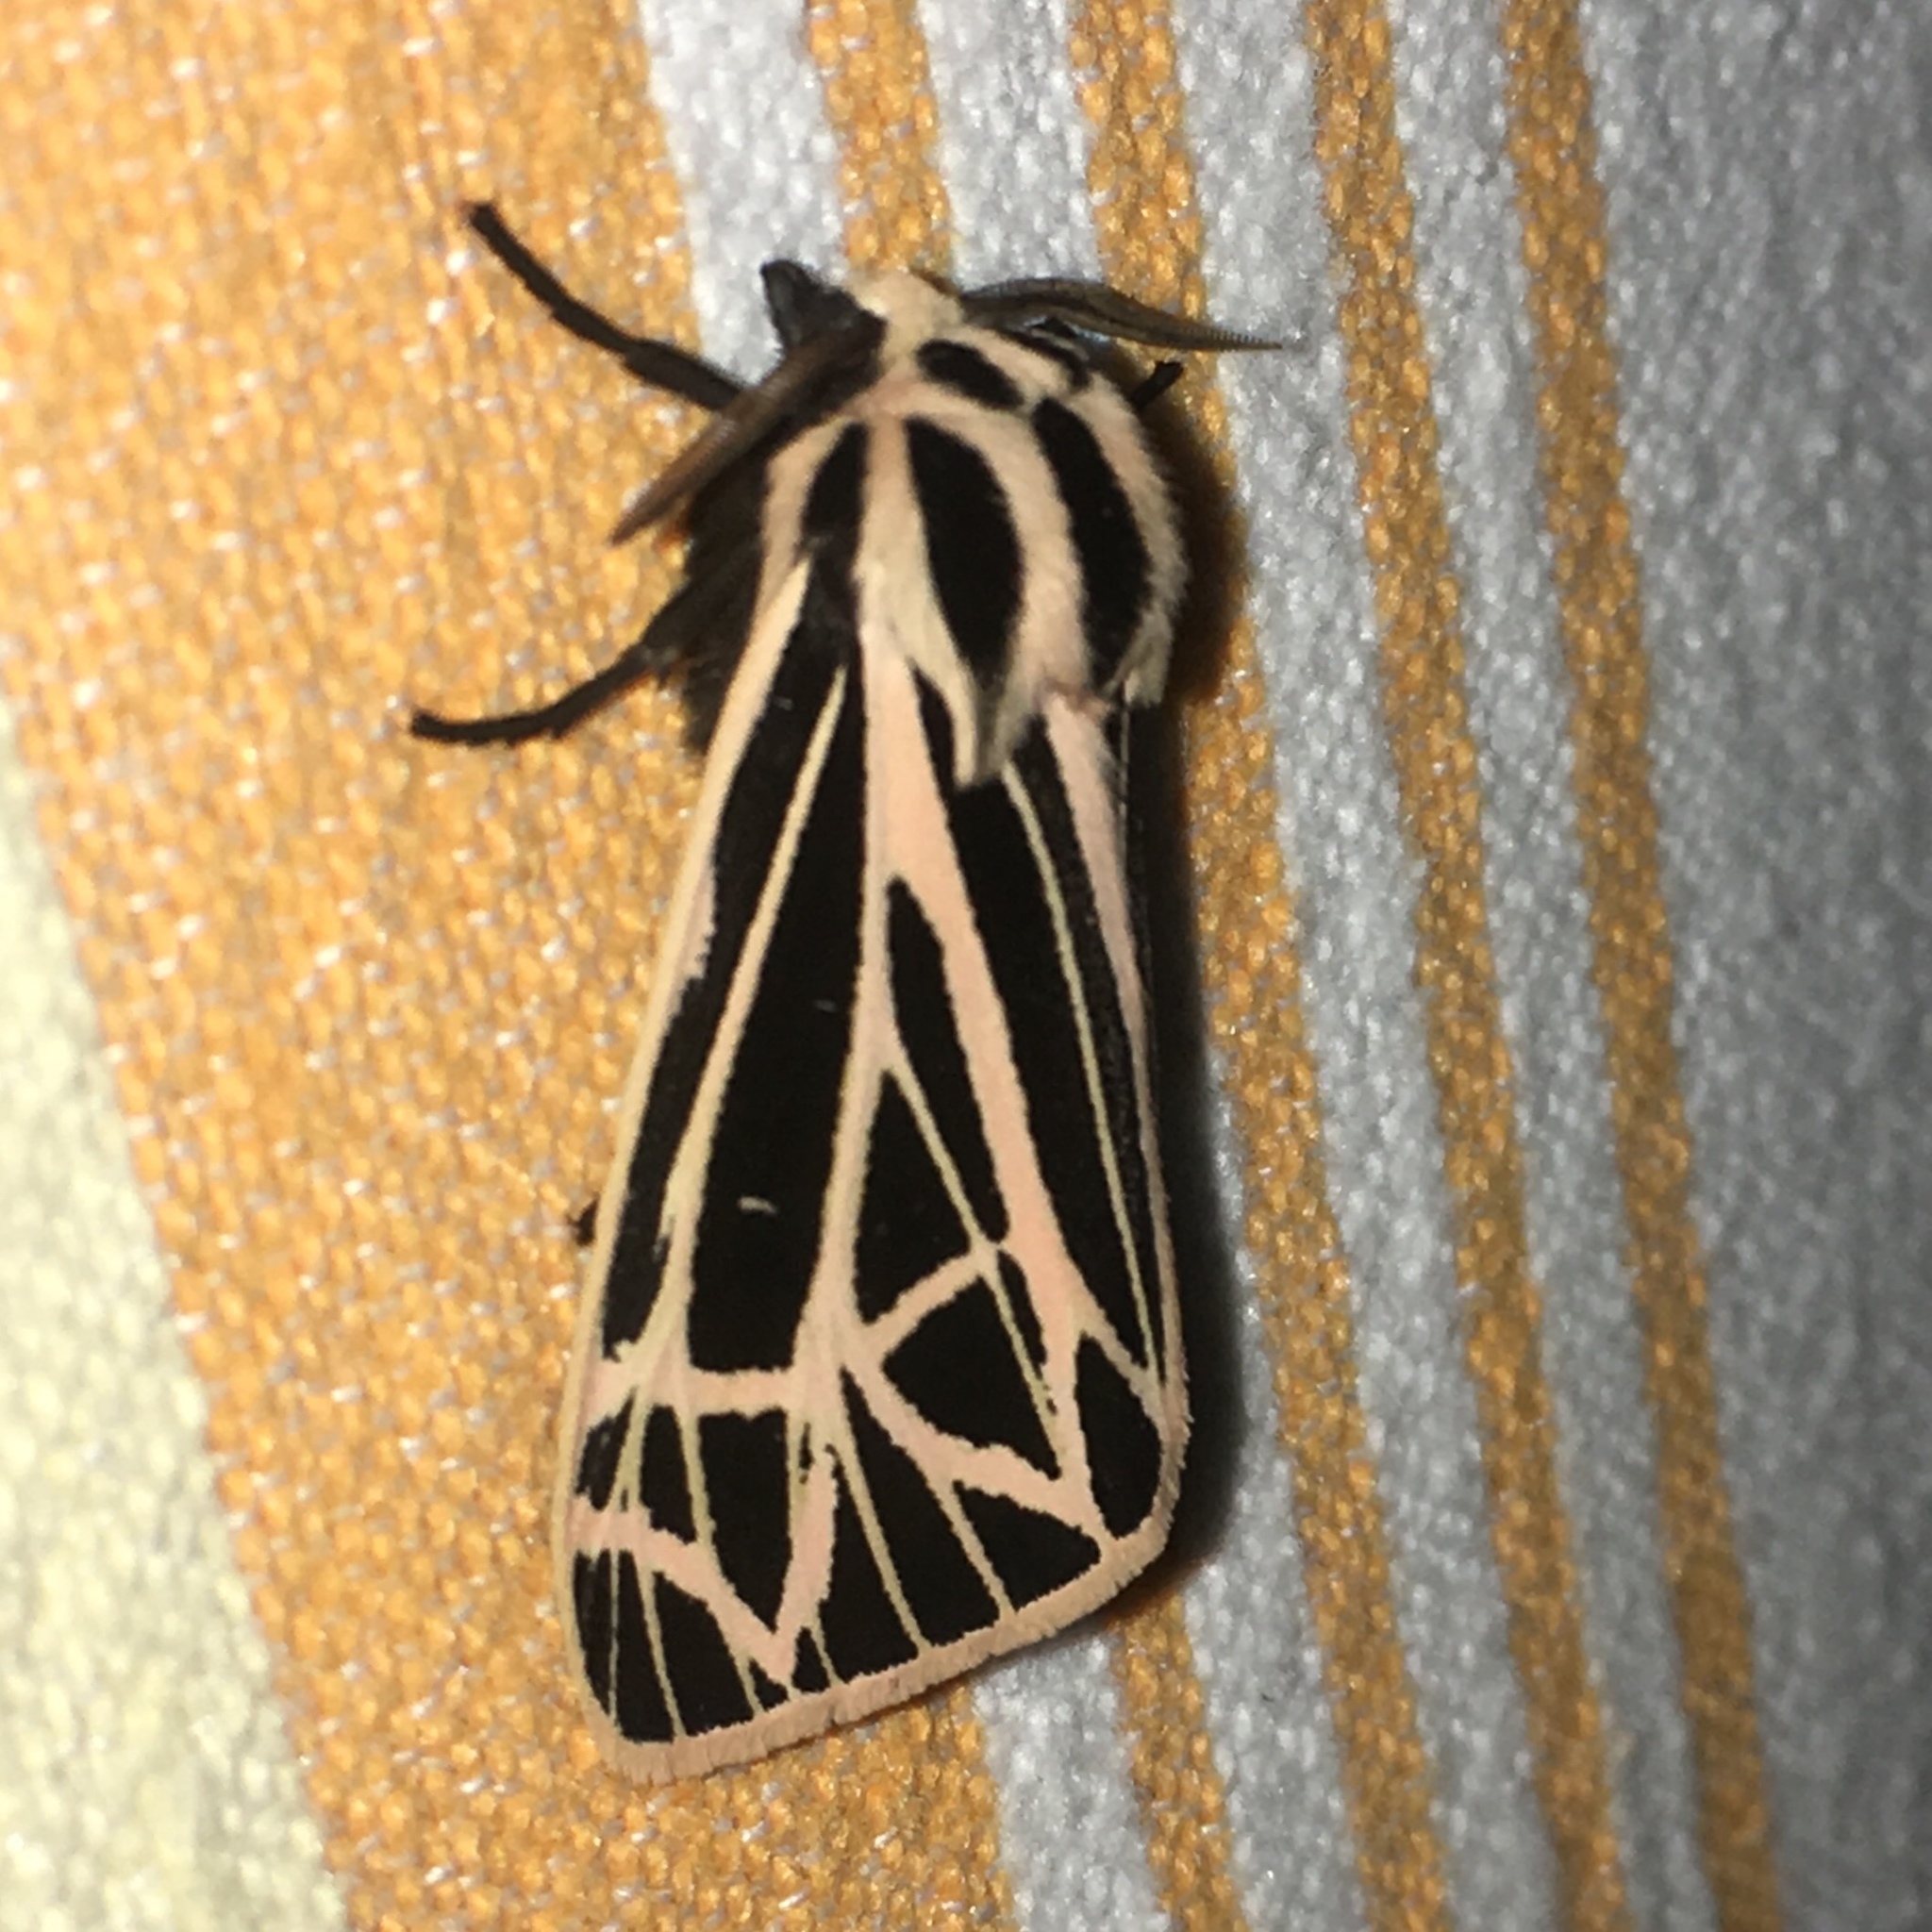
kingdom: Animalia
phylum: Arthropoda
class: Insecta
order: Lepidoptera
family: Erebidae
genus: Grammia
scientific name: Grammia virgo
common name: Virgin tiger moth
